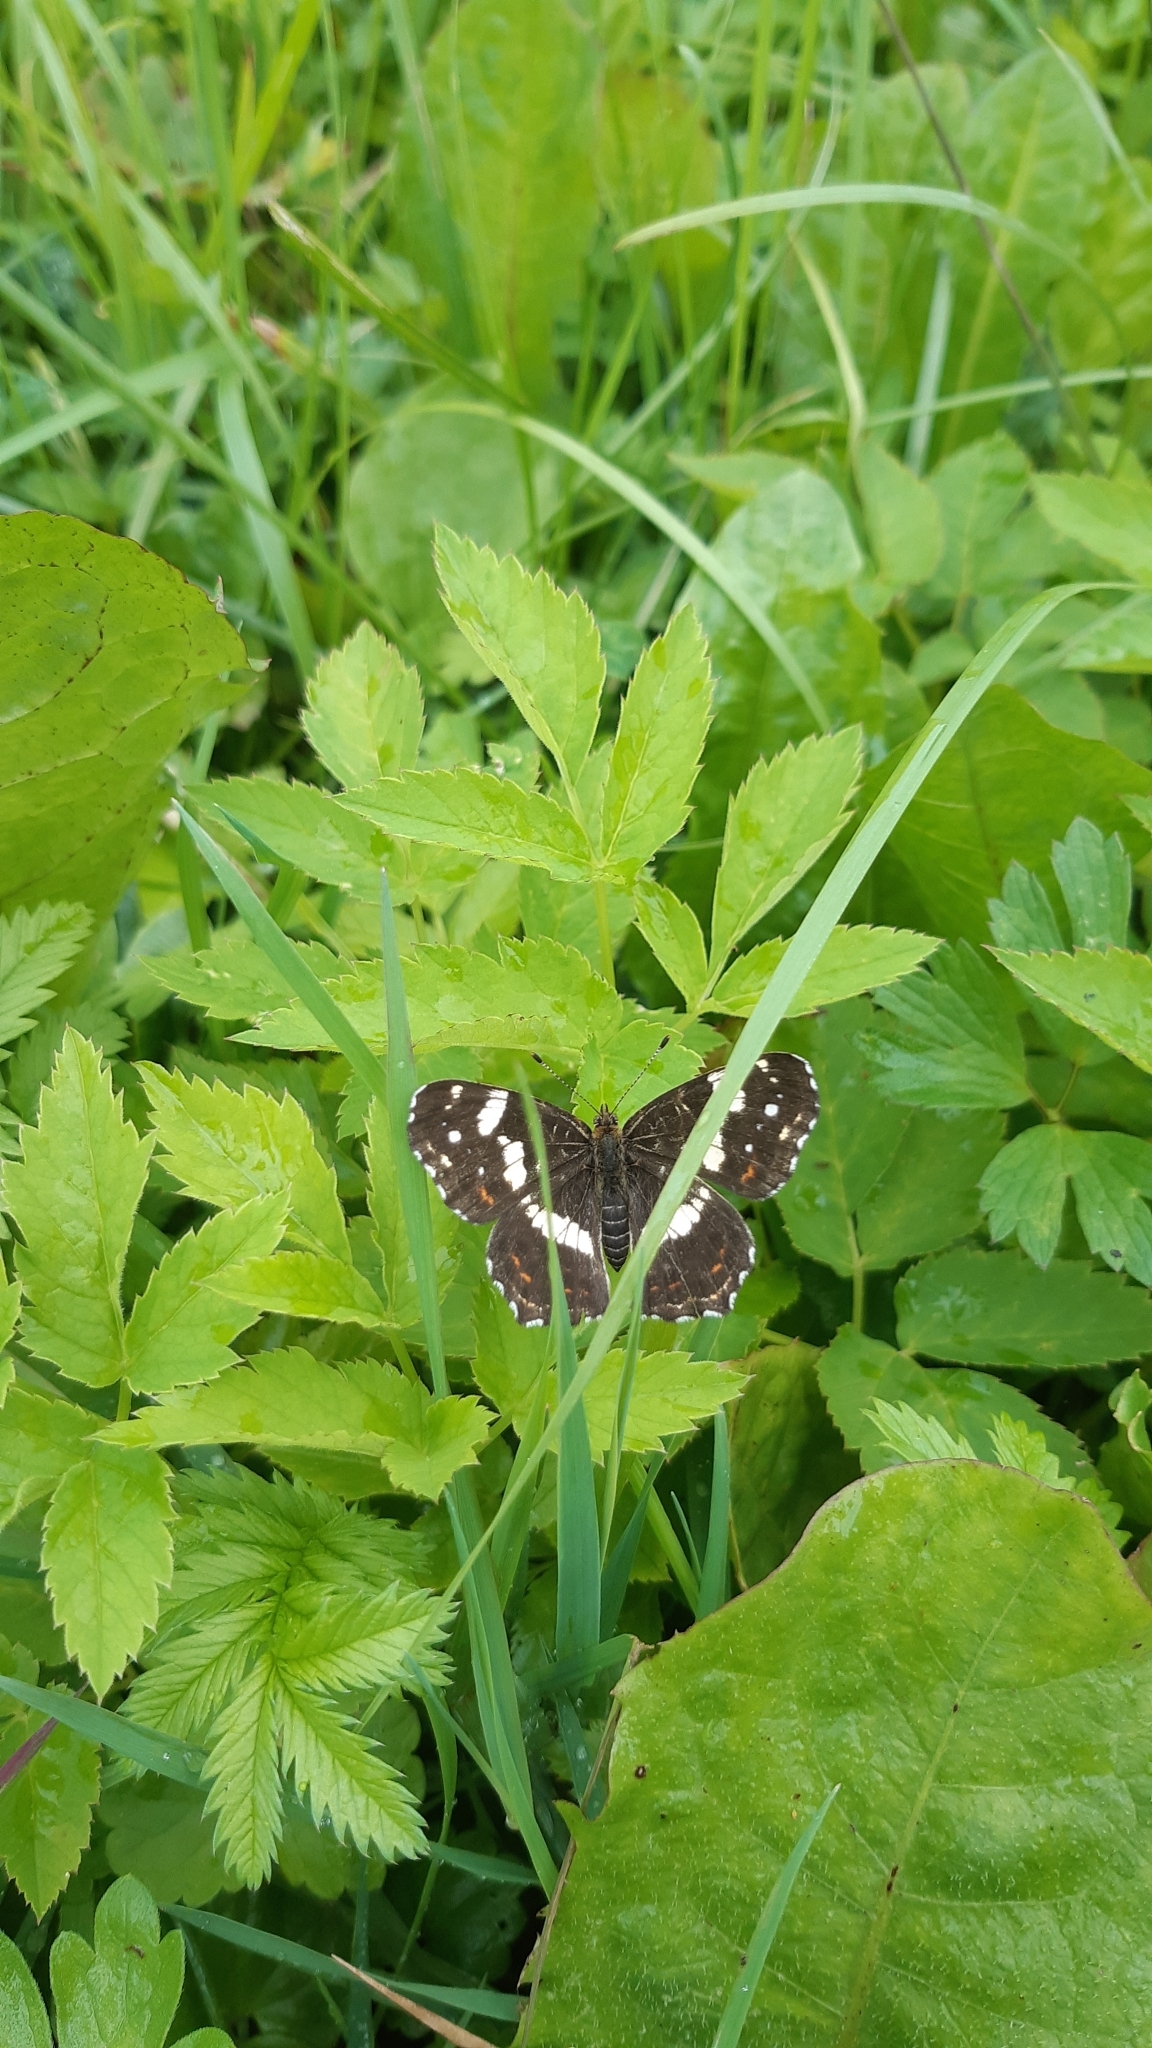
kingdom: Animalia
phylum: Arthropoda
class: Insecta
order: Lepidoptera
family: Nymphalidae
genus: Araschnia
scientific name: Araschnia levana
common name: Map butterfly
